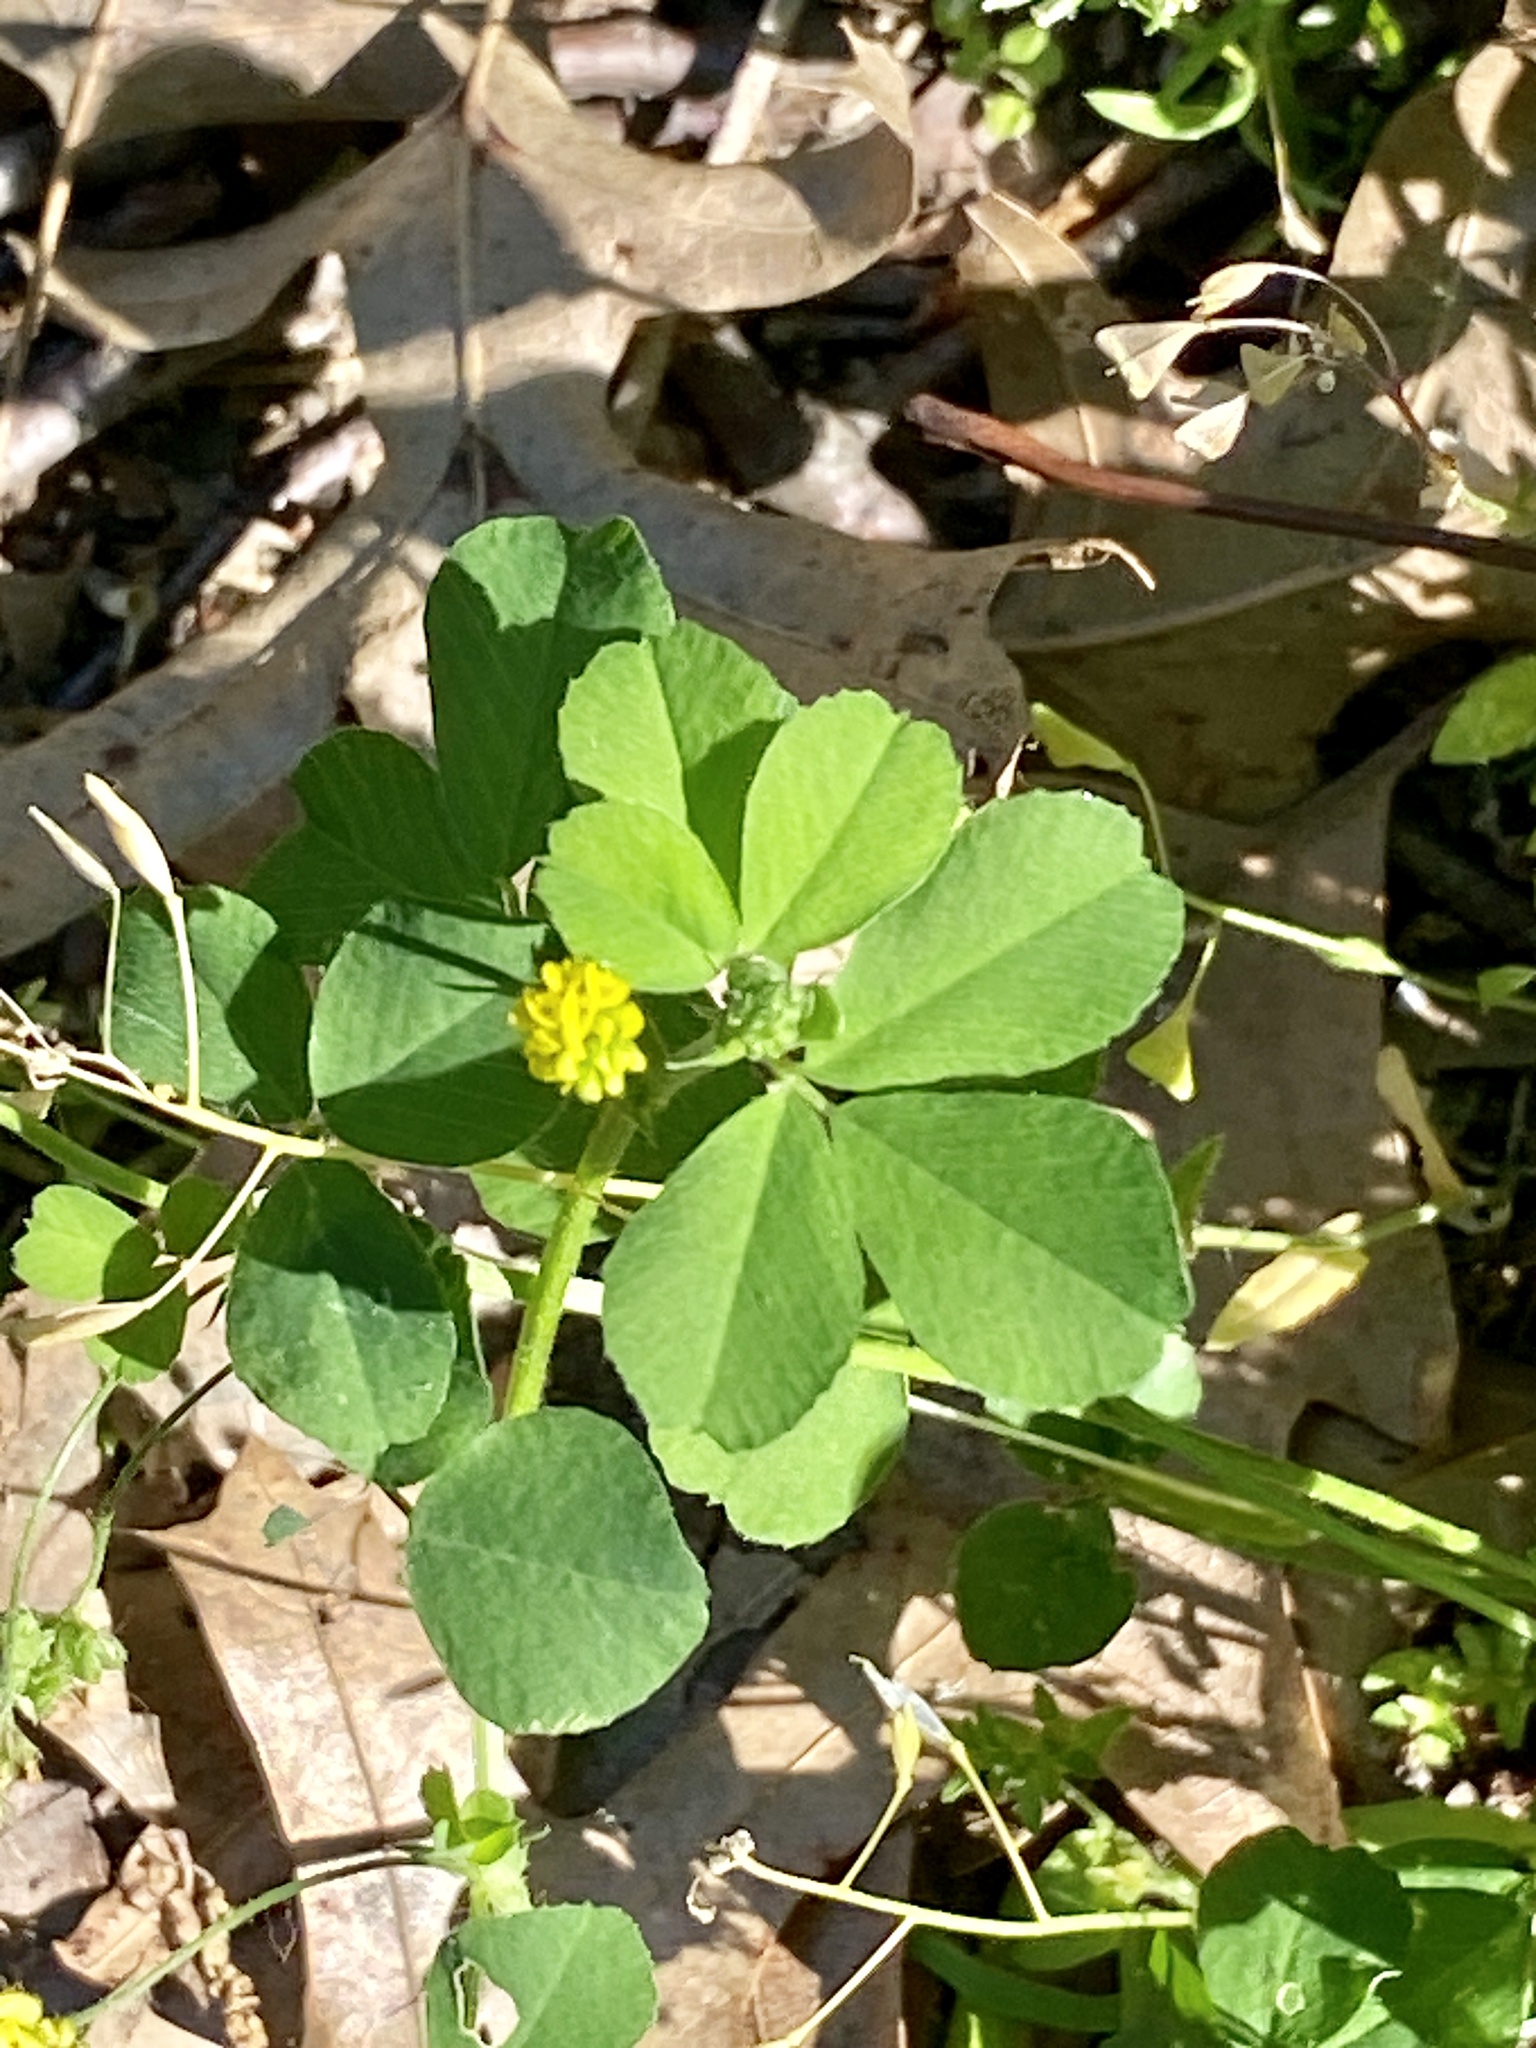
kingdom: Plantae
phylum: Tracheophyta
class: Magnoliopsida
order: Fabales
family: Fabaceae
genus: Medicago
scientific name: Medicago lupulina
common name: Black medick
